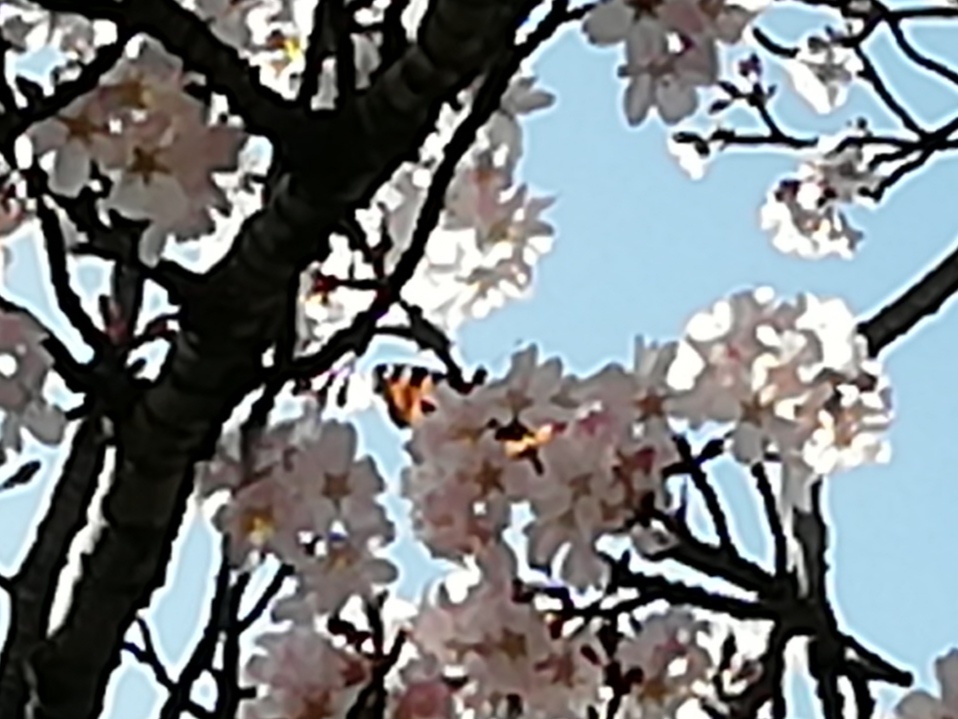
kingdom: Animalia
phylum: Arthropoda
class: Insecta
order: Lepidoptera
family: Nymphalidae
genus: Aglais
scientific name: Aglais urticae
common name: Small tortoiseshell
